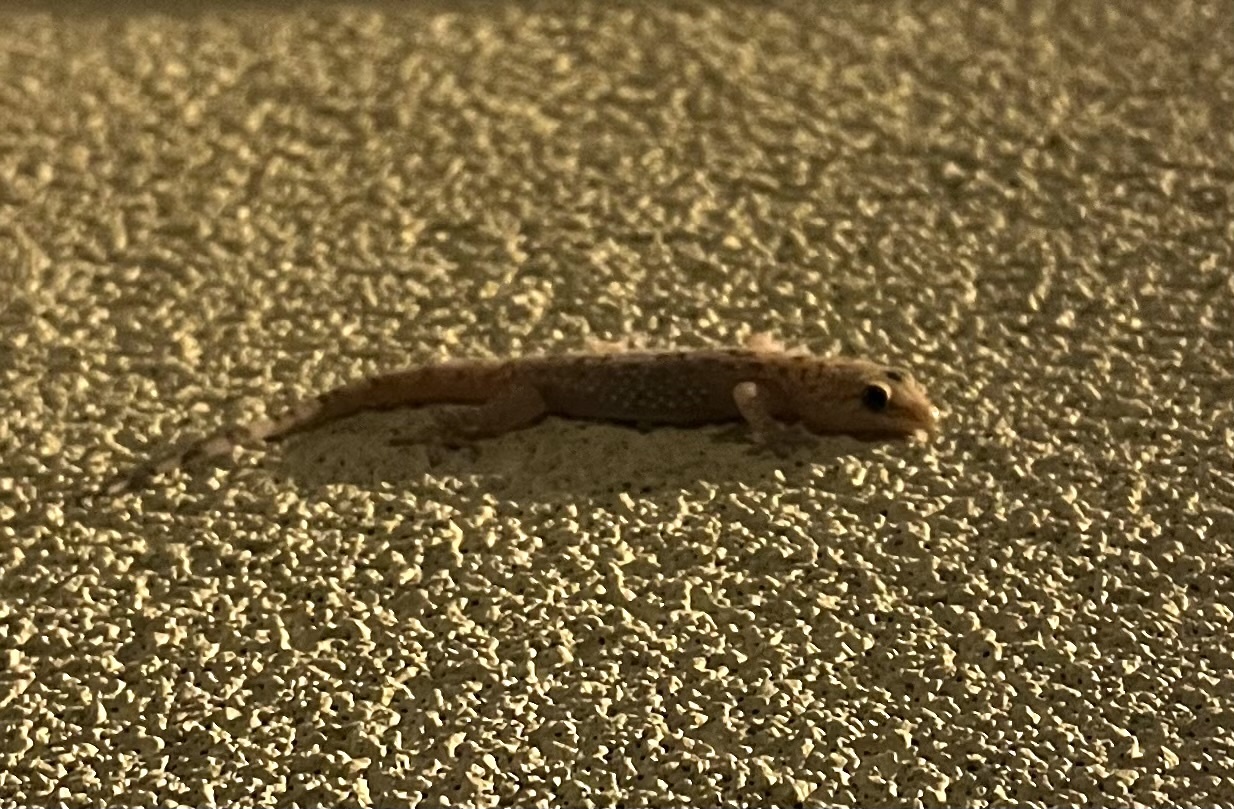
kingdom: Animalia
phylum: Chordata
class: Squamata
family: Gekkonidae
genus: Hemidactylus
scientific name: Hemidactylus turcicus
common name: Turkish gecko
